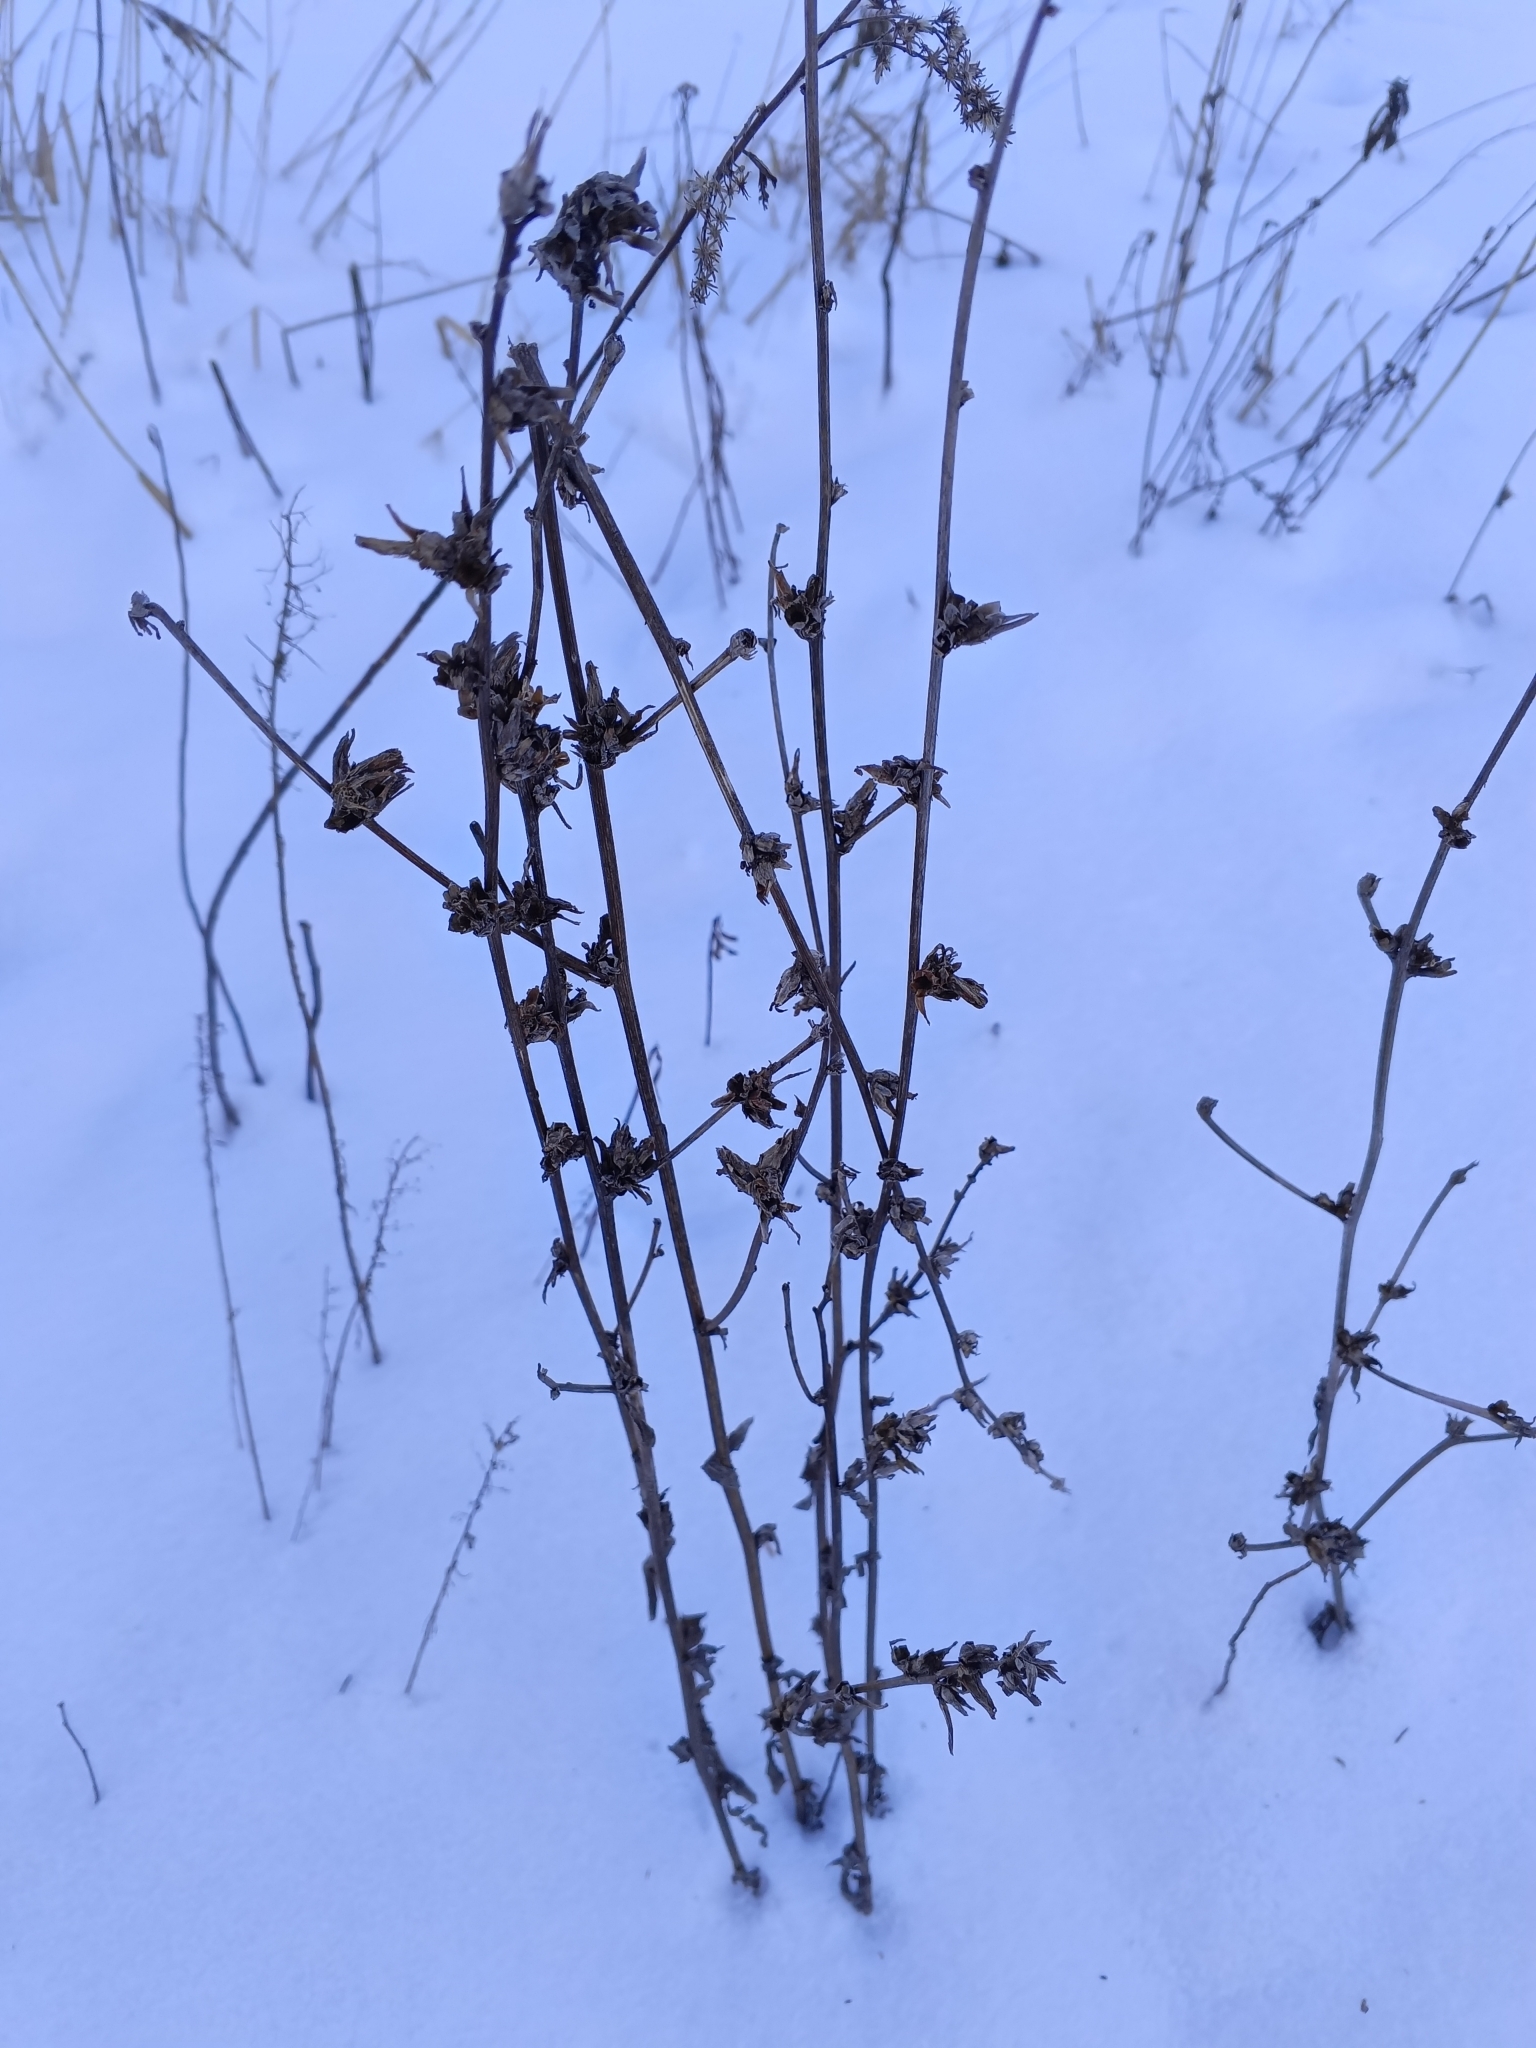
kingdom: Plantae
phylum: Tracheophyta
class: Magnoliopsida
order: Asterales
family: Asteraceae
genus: Cichorium
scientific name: Cichorium intybus
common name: Chicory
